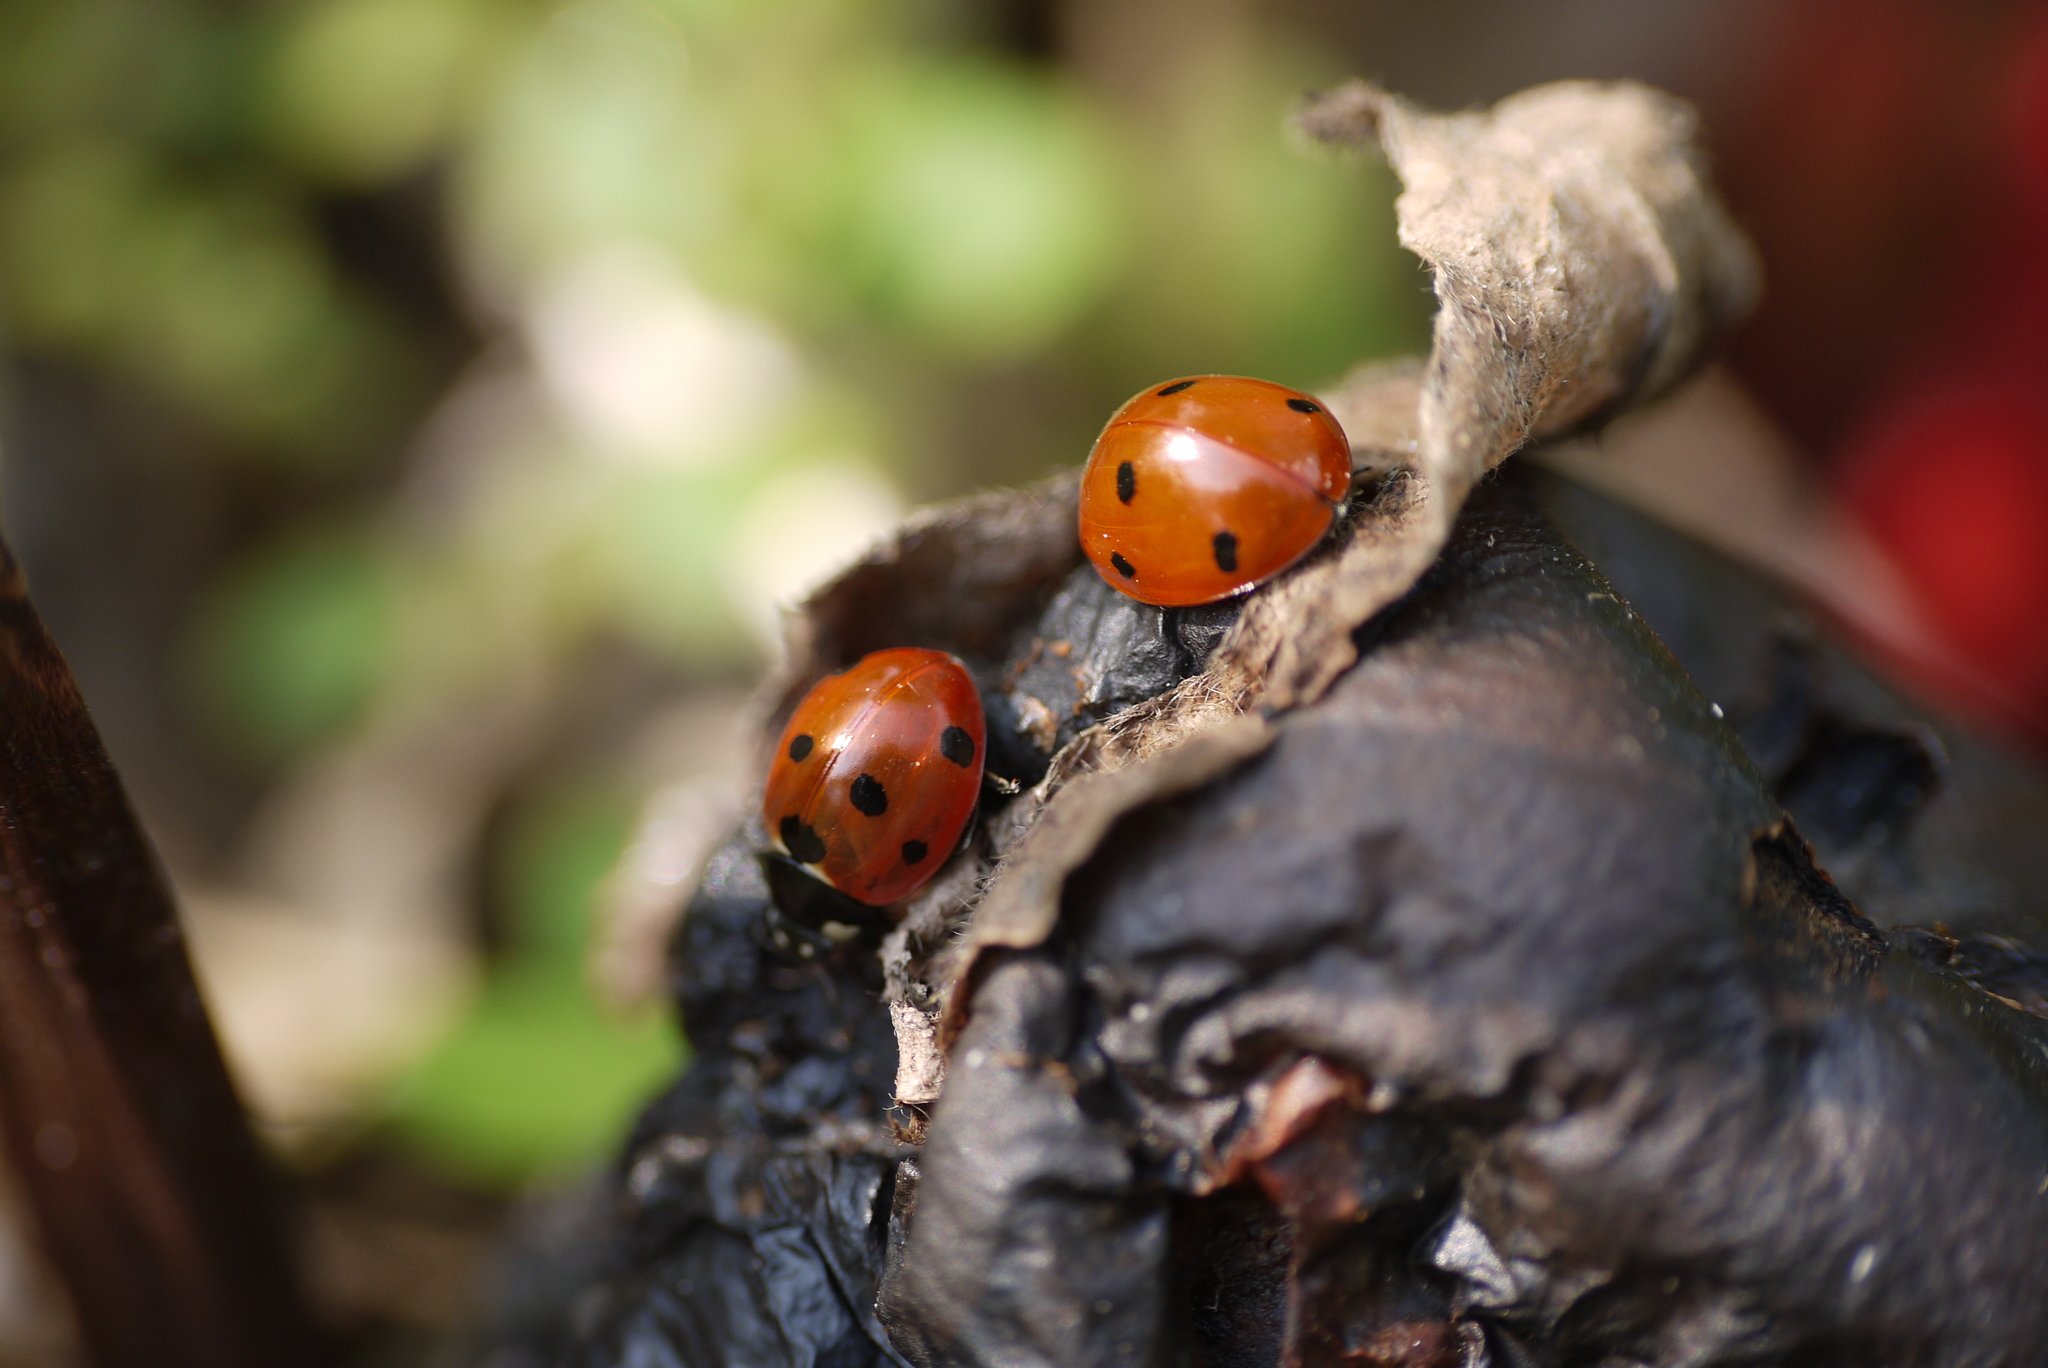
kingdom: Animalia
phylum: Arthropoda
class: Insecta
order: Coleoptera
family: Coccinellidae
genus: Coccinella
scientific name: Coccinella septempunctata
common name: Sevenspotted lady beetle
